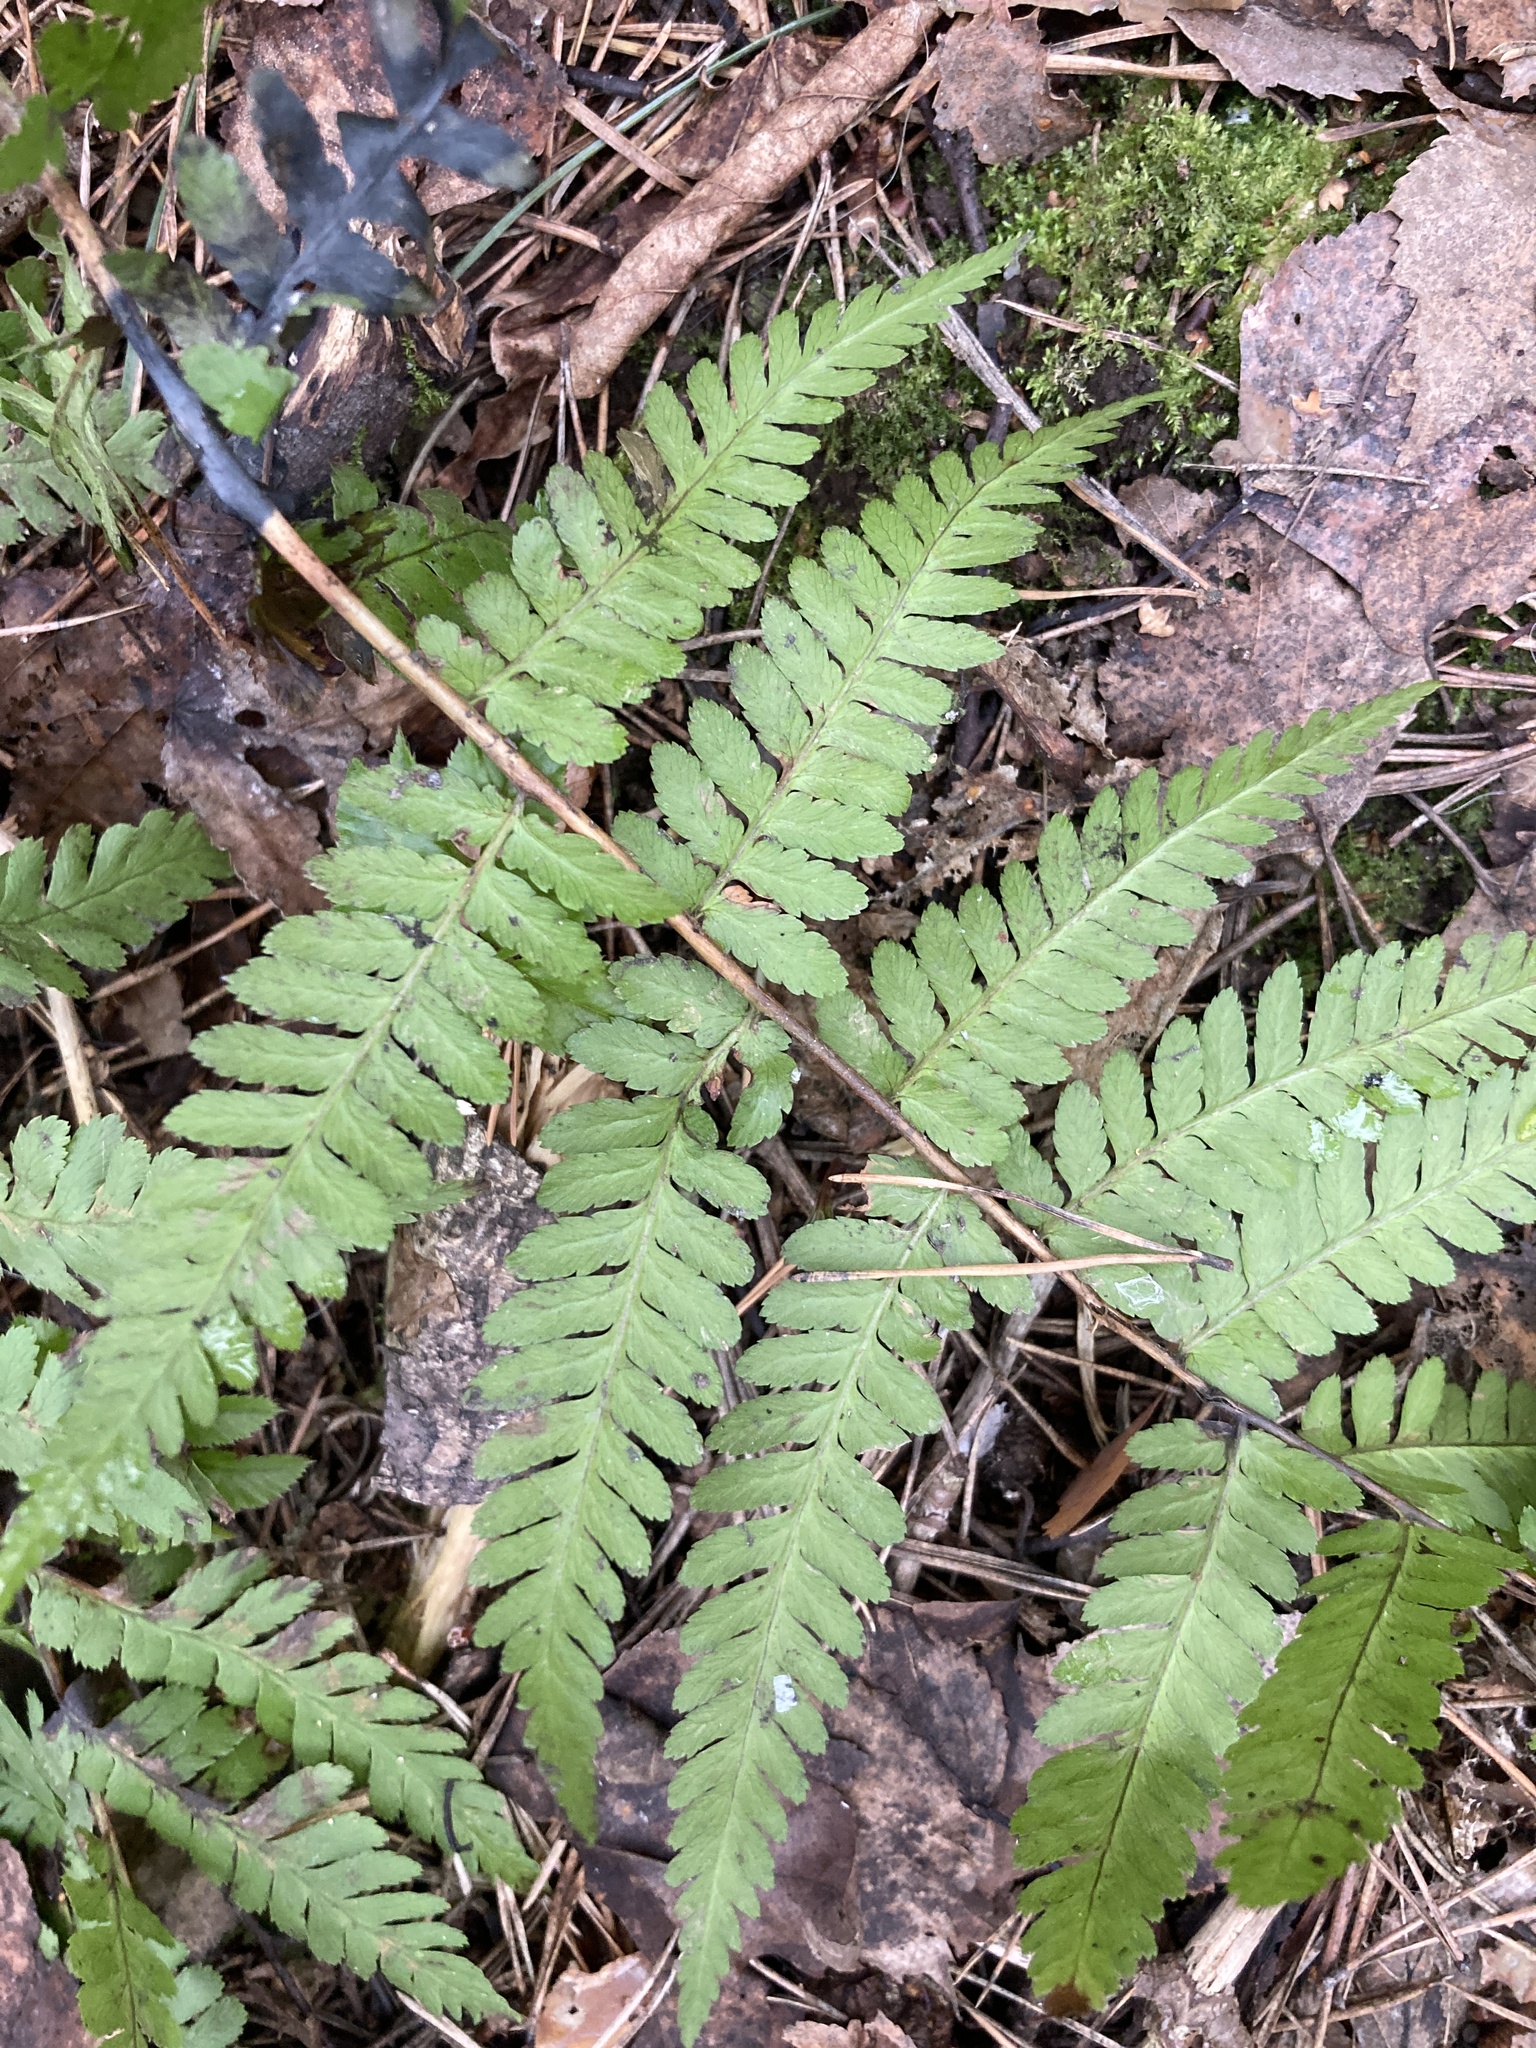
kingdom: Plantae
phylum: Tracheophyta
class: Polypodiopsida
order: Polypodiales
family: Dryopteridaceae
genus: Dryopteris
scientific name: Dryopteris filix-mas
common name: Male fern
